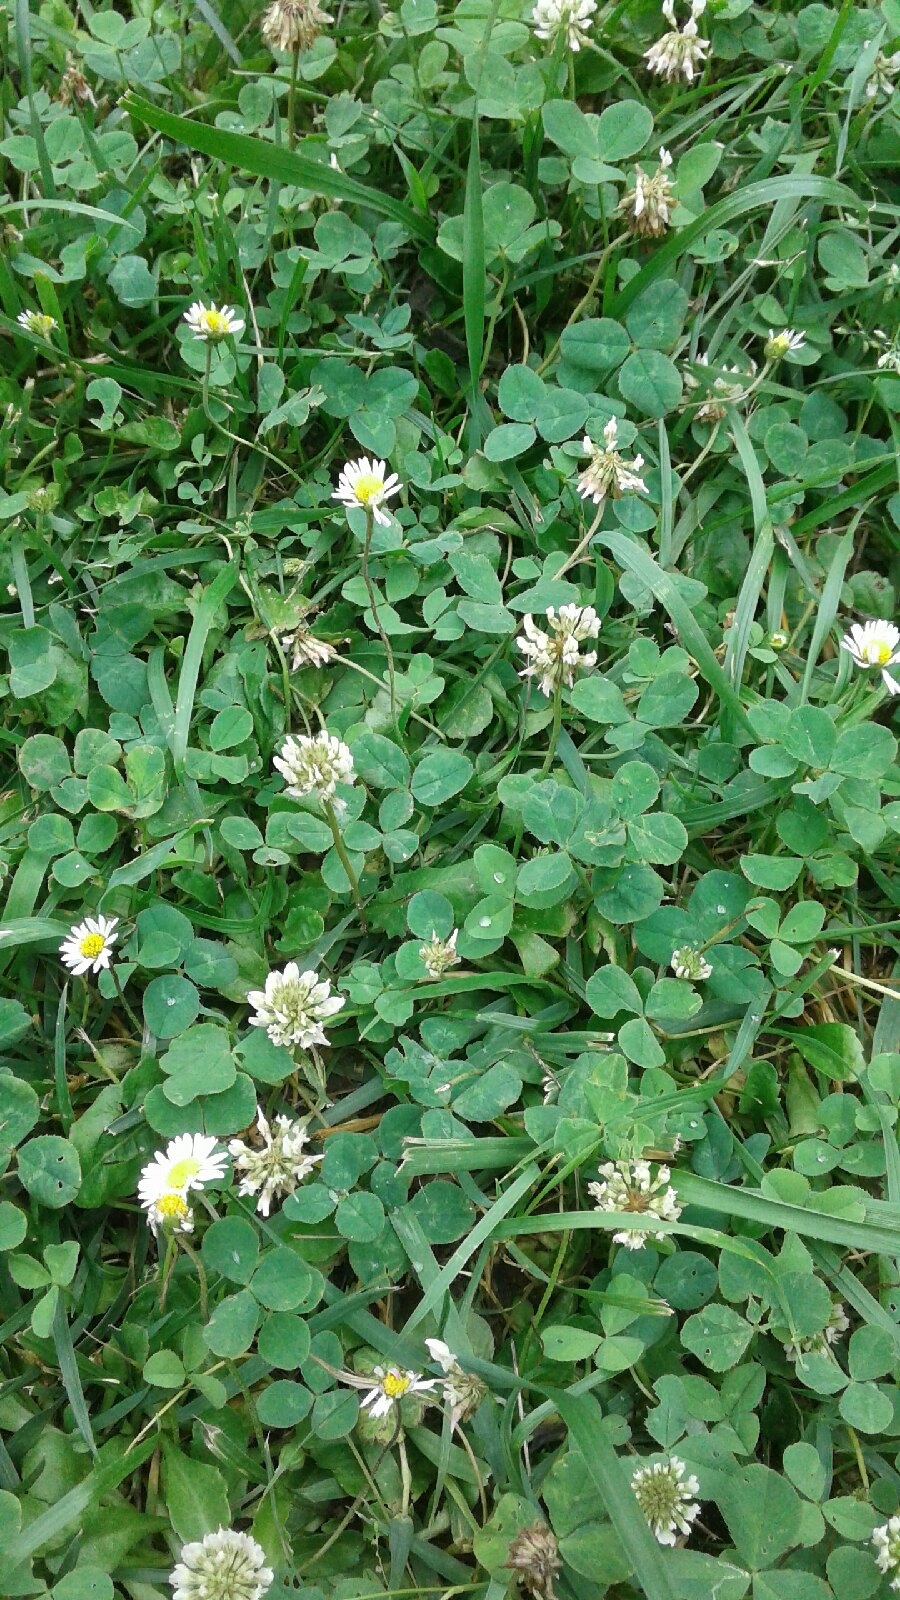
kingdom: Plantae
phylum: Tracheophyta
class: Magnoliopsida
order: Fabales
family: Fabaceae
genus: Trifolium
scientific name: Trifolium repens
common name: White clover
